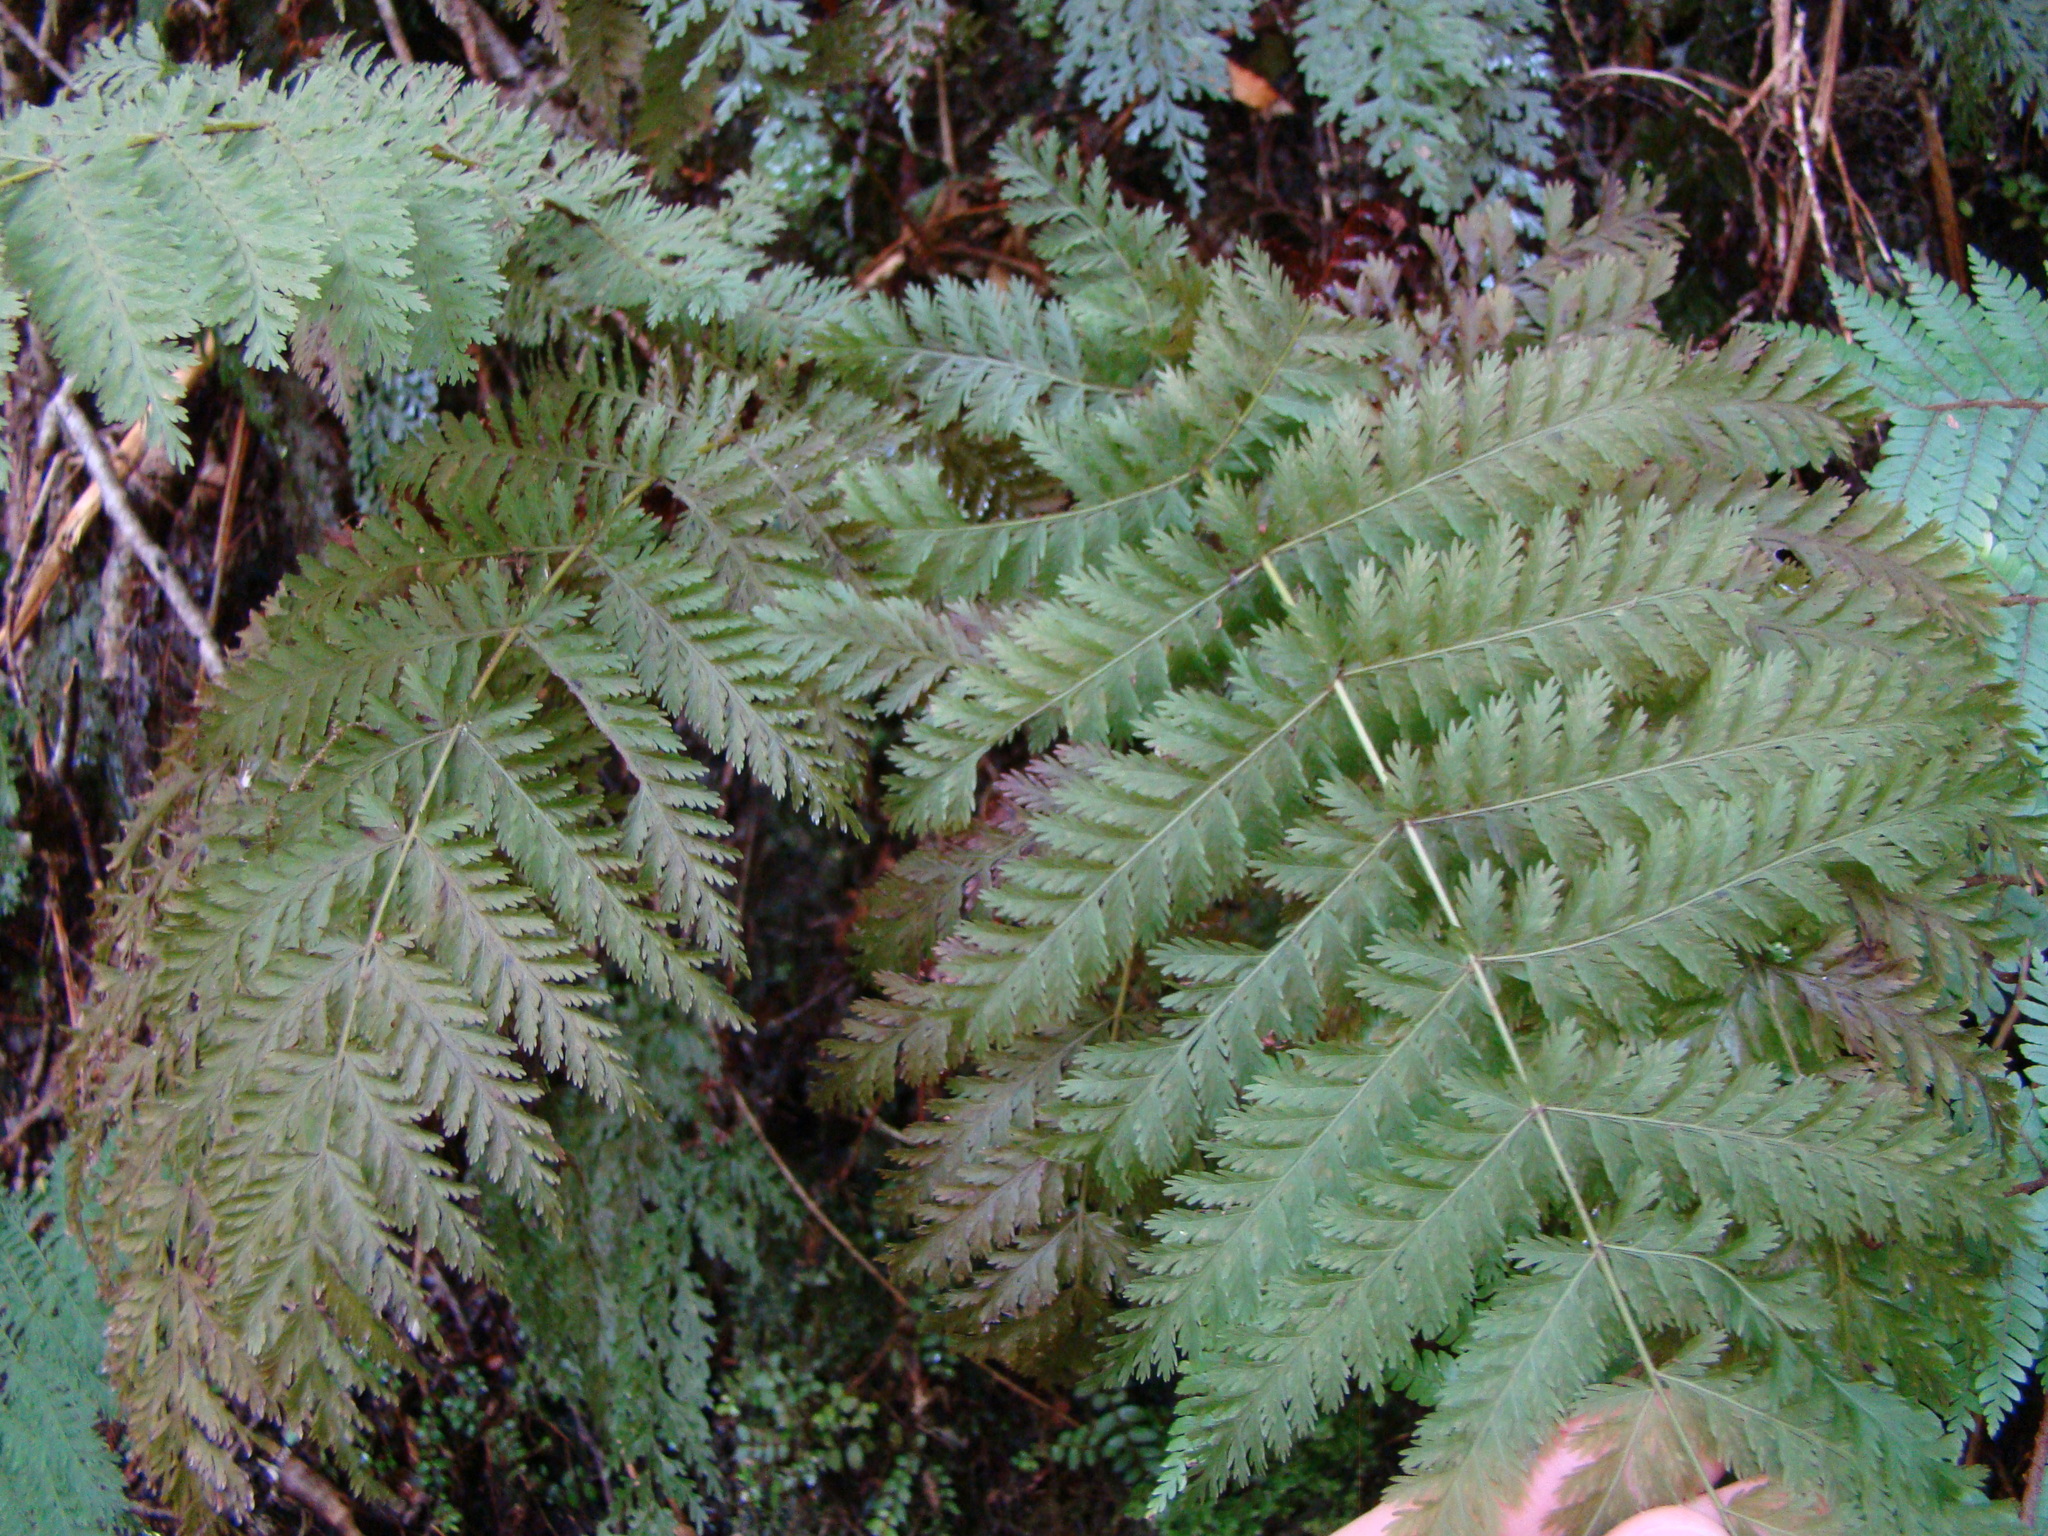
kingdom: Plantae
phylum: Tracheophyta
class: Polypodiopsida
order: Osmundales
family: Osmundaceae
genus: Leptopteris
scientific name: Leptopteris hymenophylloides
